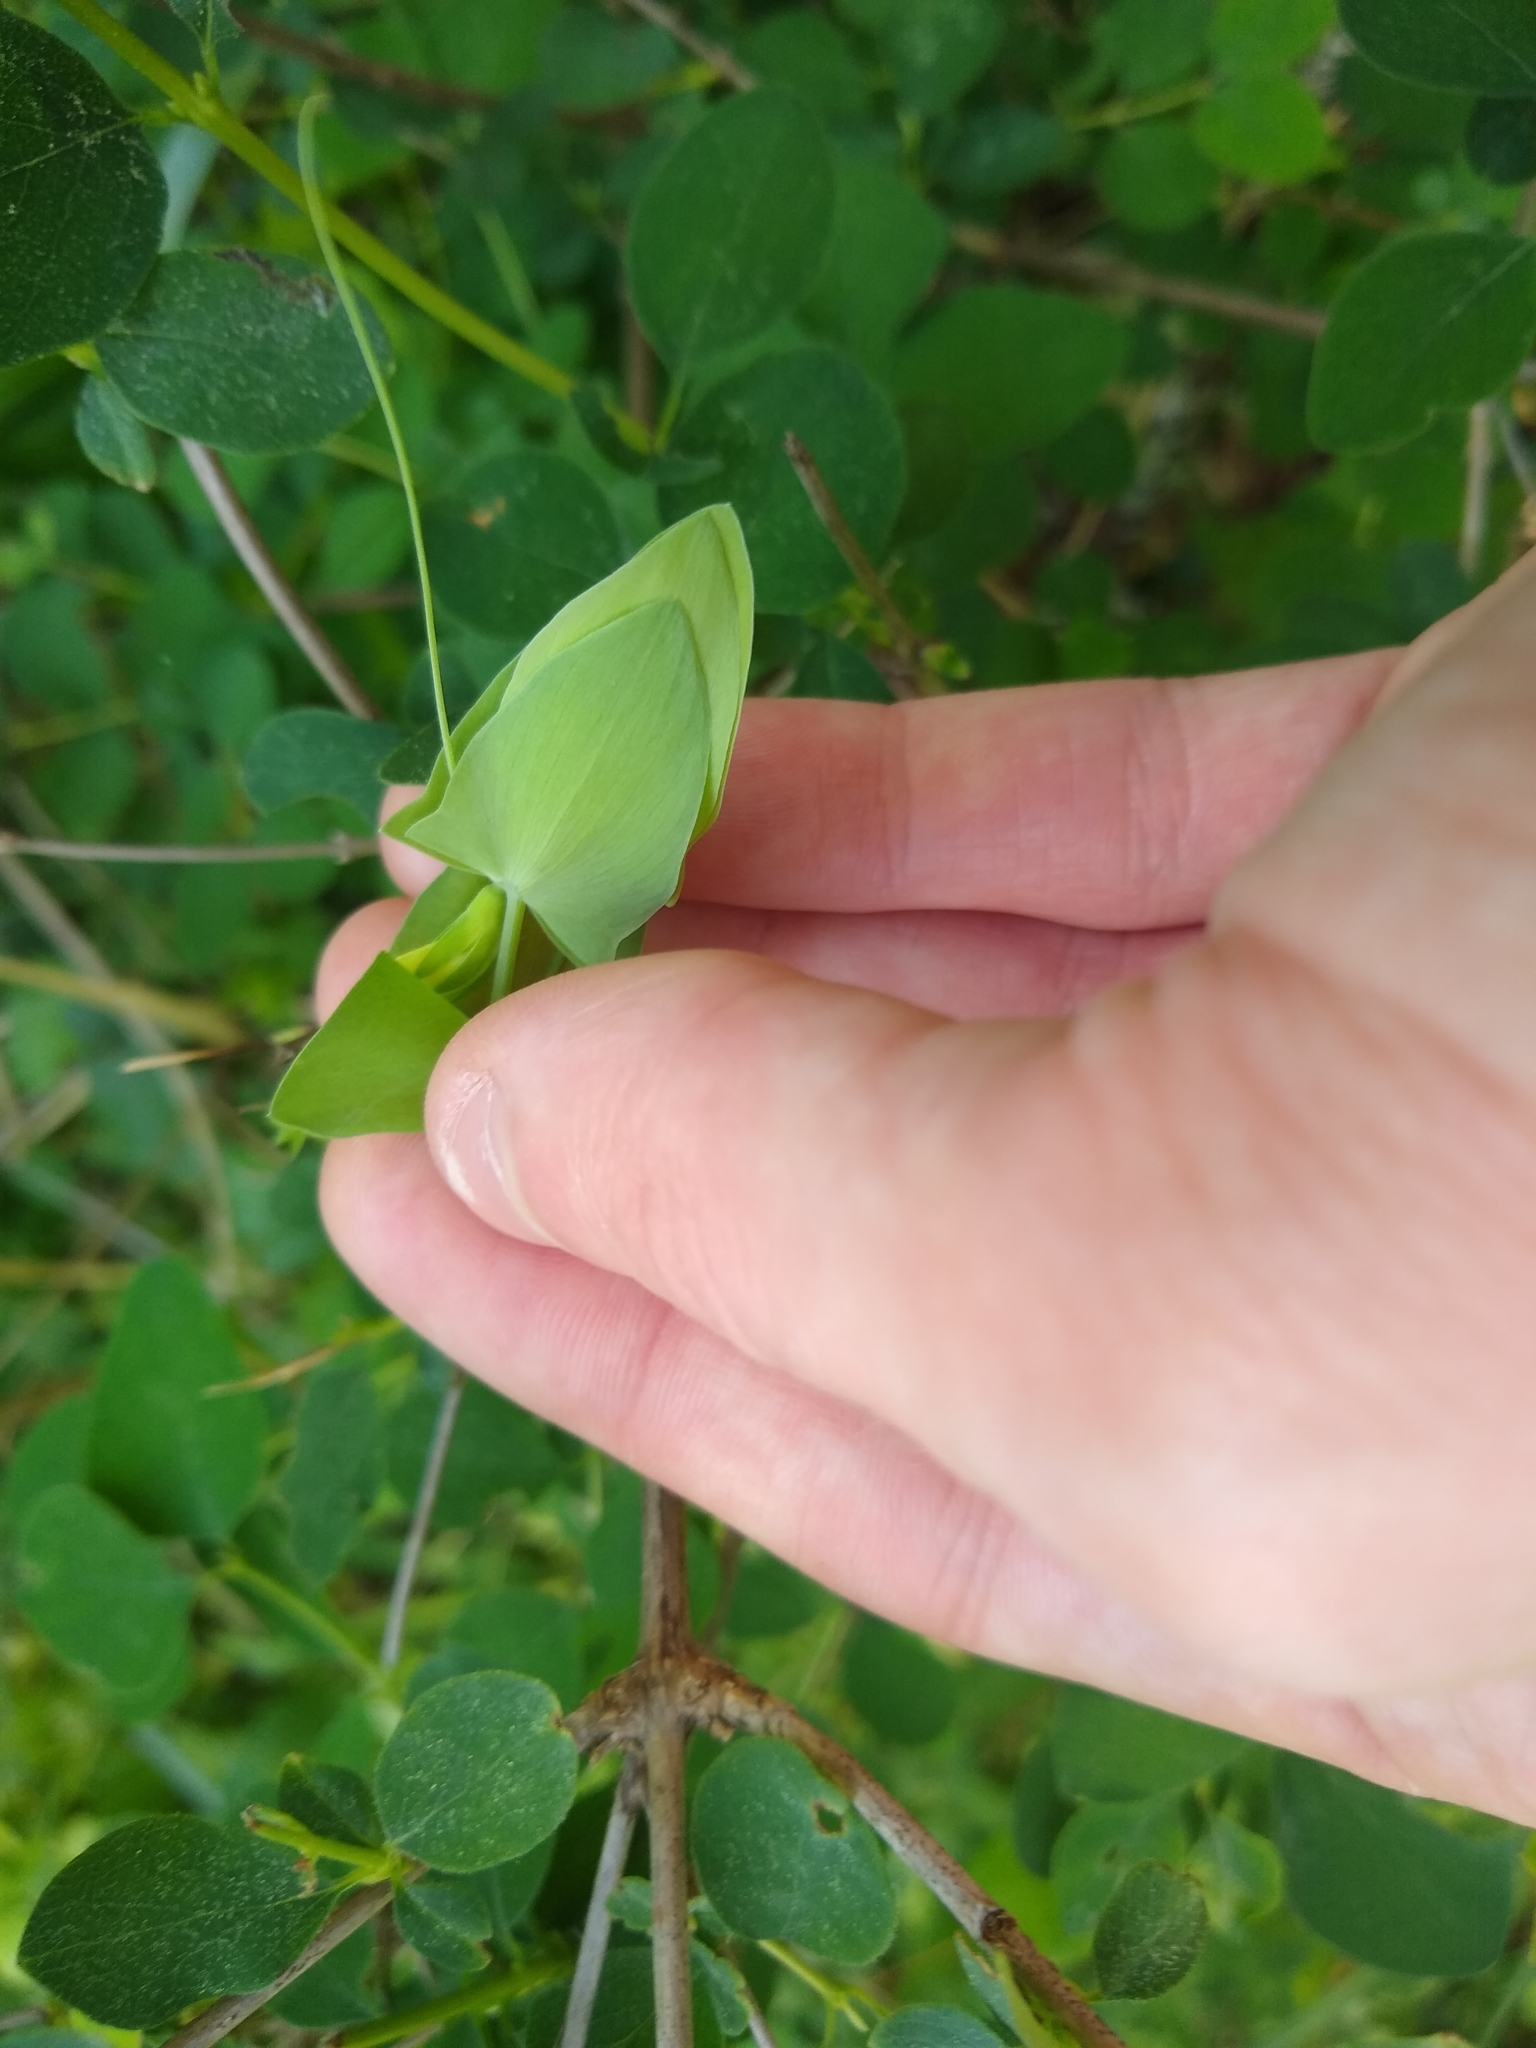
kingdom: Plantae
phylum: Tracheophyta
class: Magnoliopsida
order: Fabales
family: Fabaceae
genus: Lathyrus
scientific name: Lathyrus aphaca
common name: Yellow vetchling
